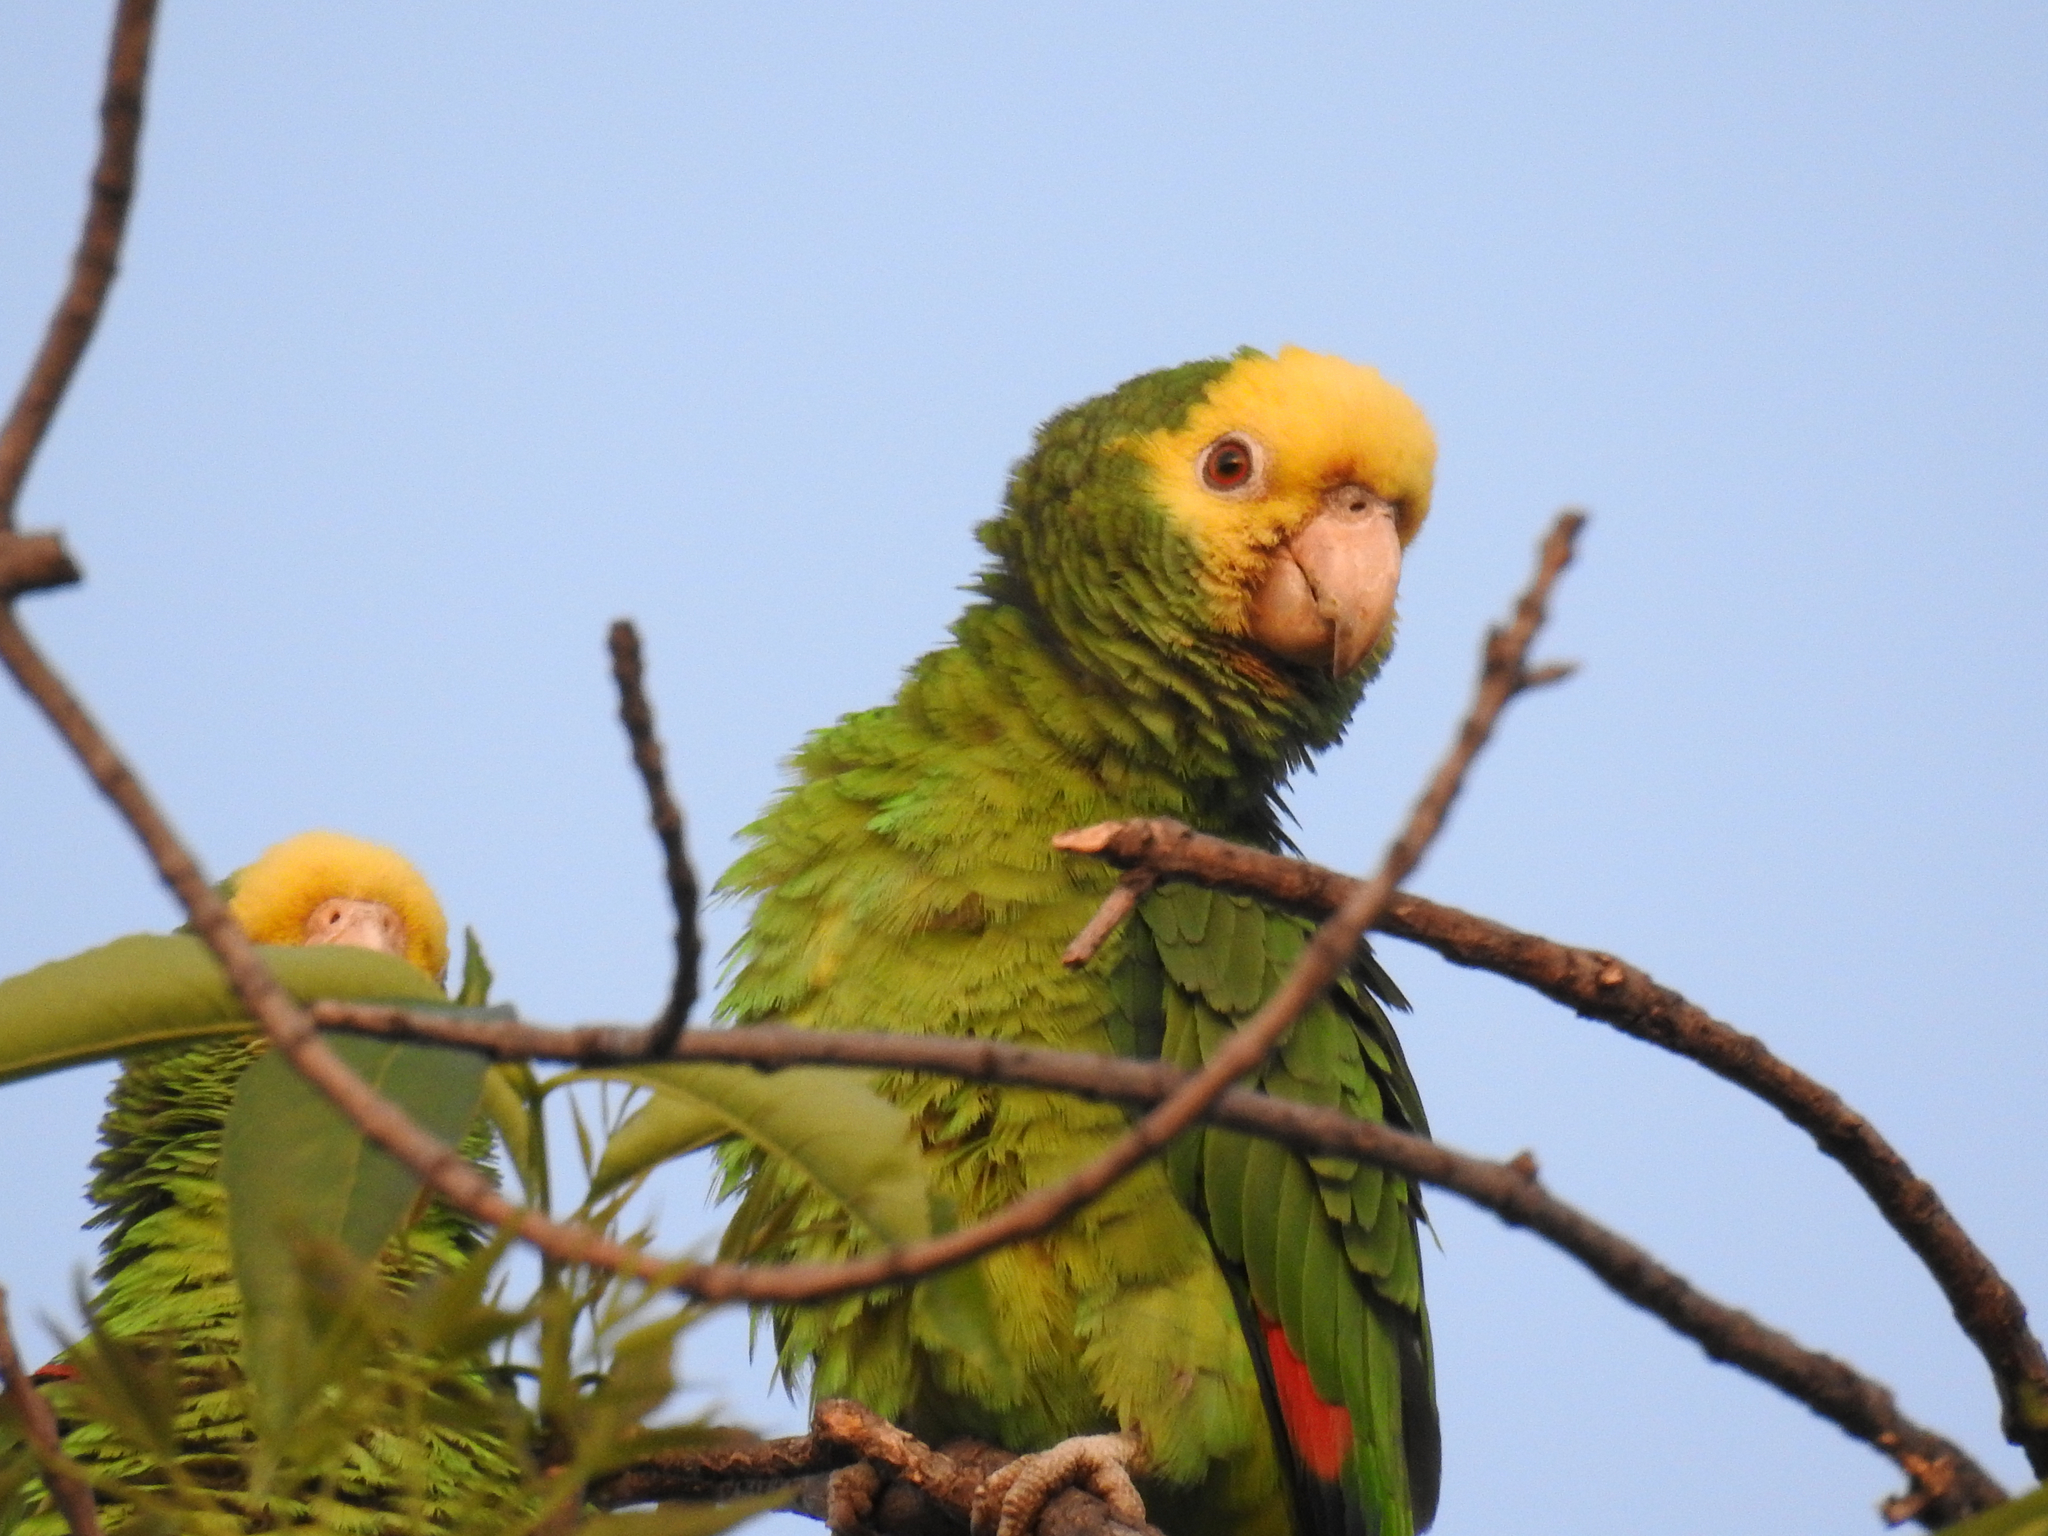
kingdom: Animalia
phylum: Chordata
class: Aves
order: Psittaciformes
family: Psittacidae
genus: Amazona
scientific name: Amazona oratrix
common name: Yellow-headed amazon
